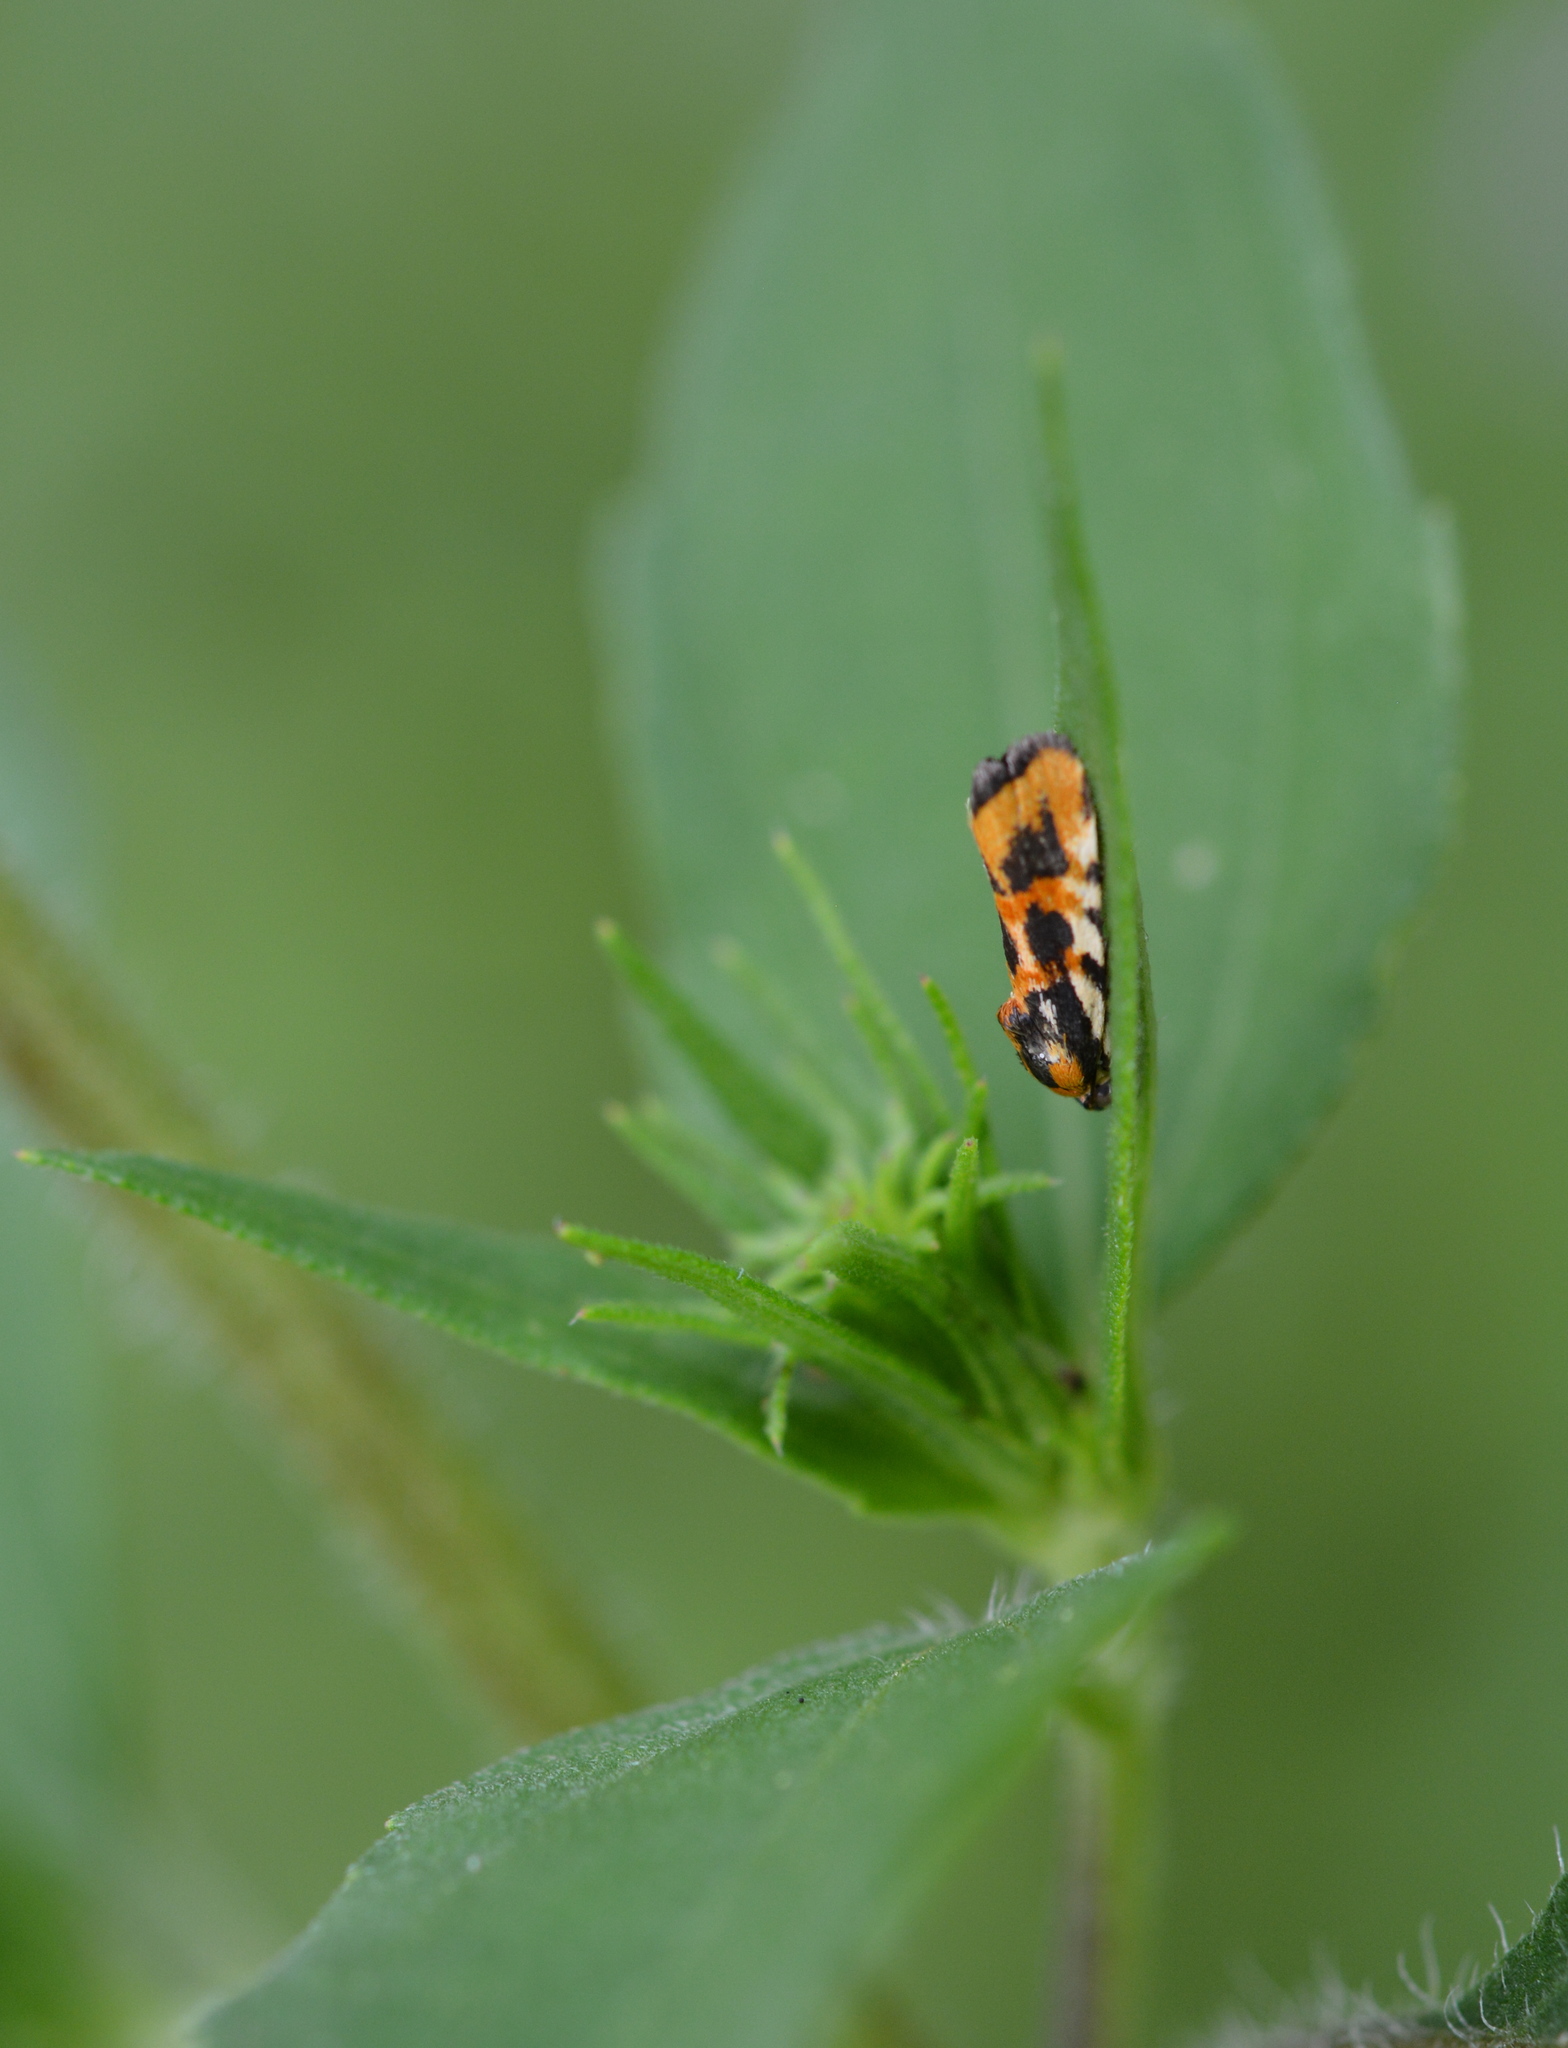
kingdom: Animalia
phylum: Arthropoda
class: Insecta
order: Lepidoptera
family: Noctuidae
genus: Acontia
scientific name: Acontia leo
